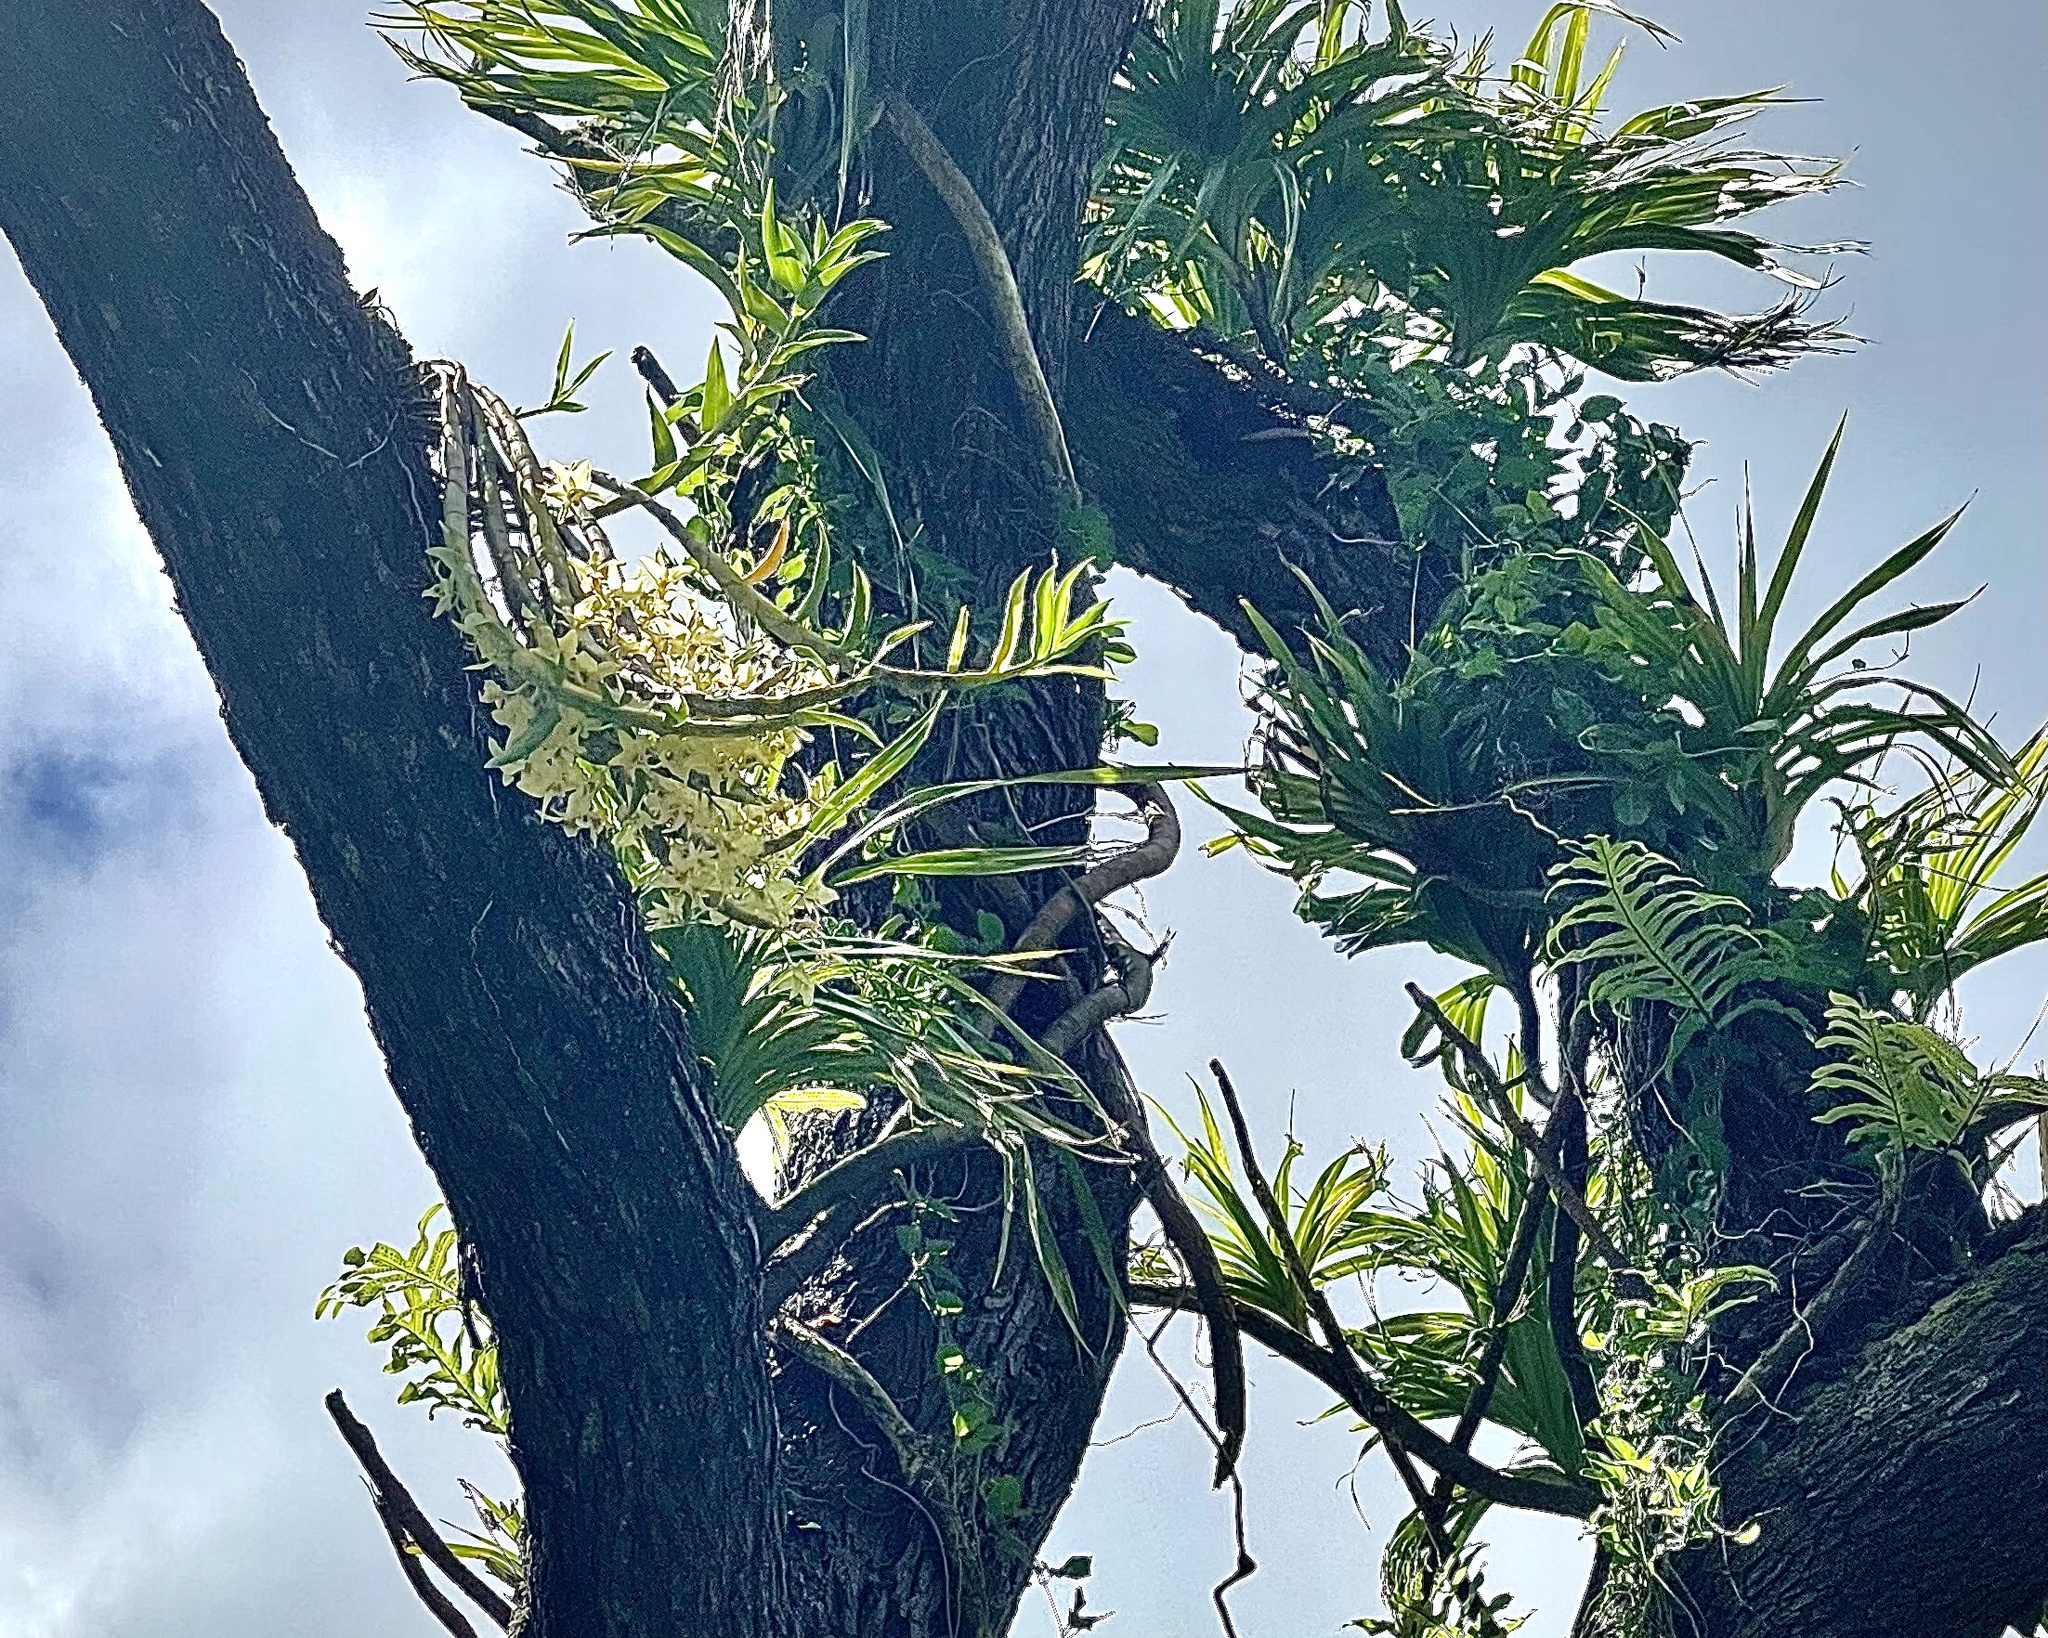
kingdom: Plantae
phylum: Tracheophyta
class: Liliopsida
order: Asparagales
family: Orchidaceae
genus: Dendrobium
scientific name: Dendrobium rhombeum
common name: Orchid
